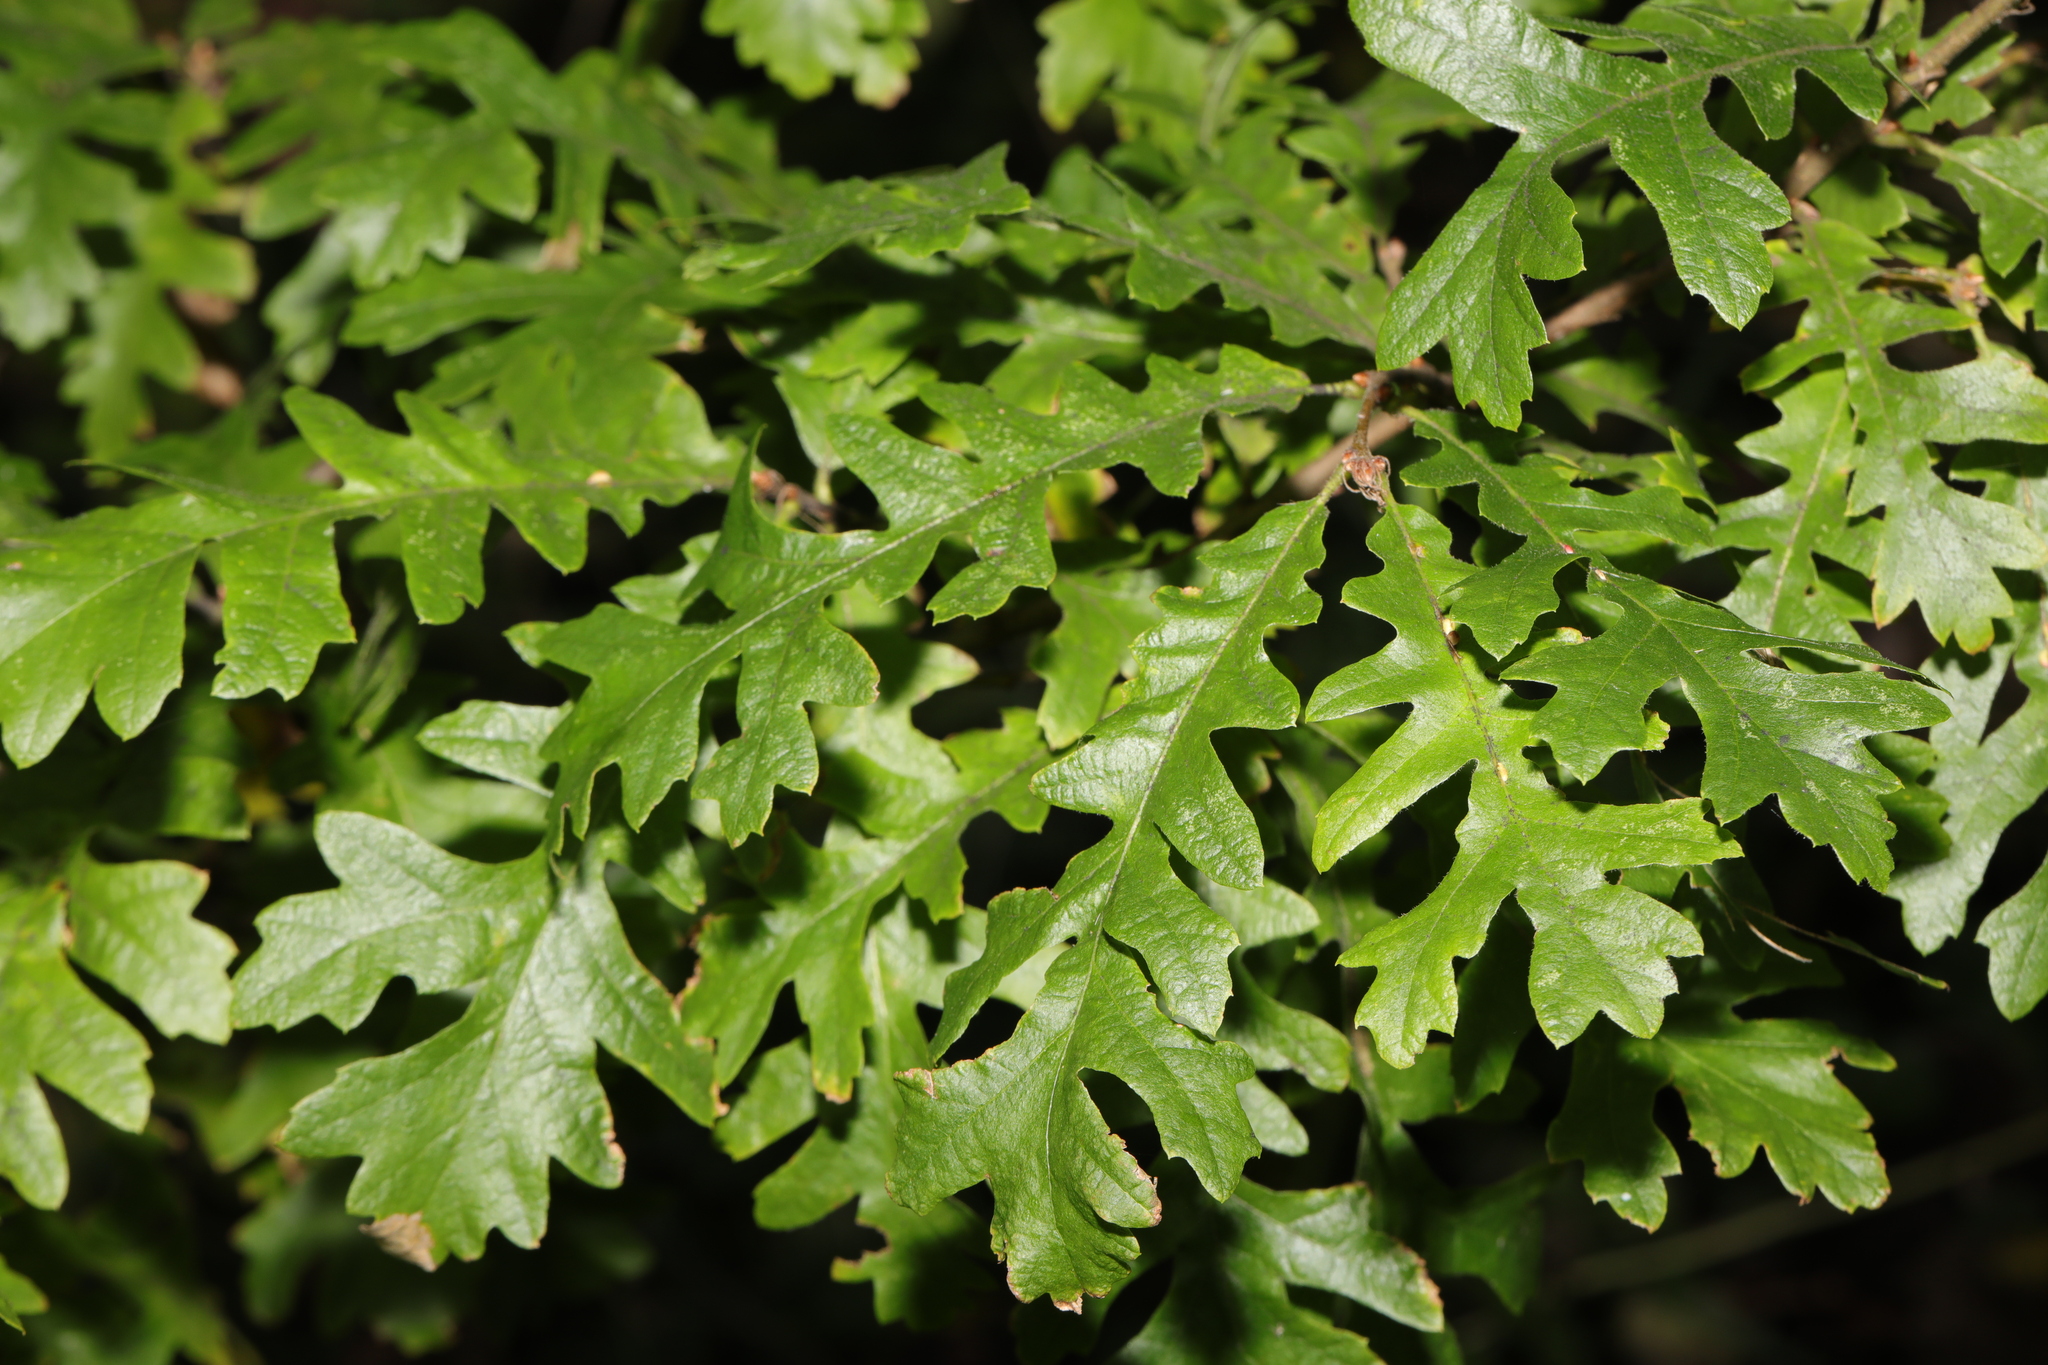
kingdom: Plantae
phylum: Tracheophyta
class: Magnoliopsida
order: Fagales
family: Fagaceae
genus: Quercus
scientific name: Quercus cerris
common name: Turkey oak
